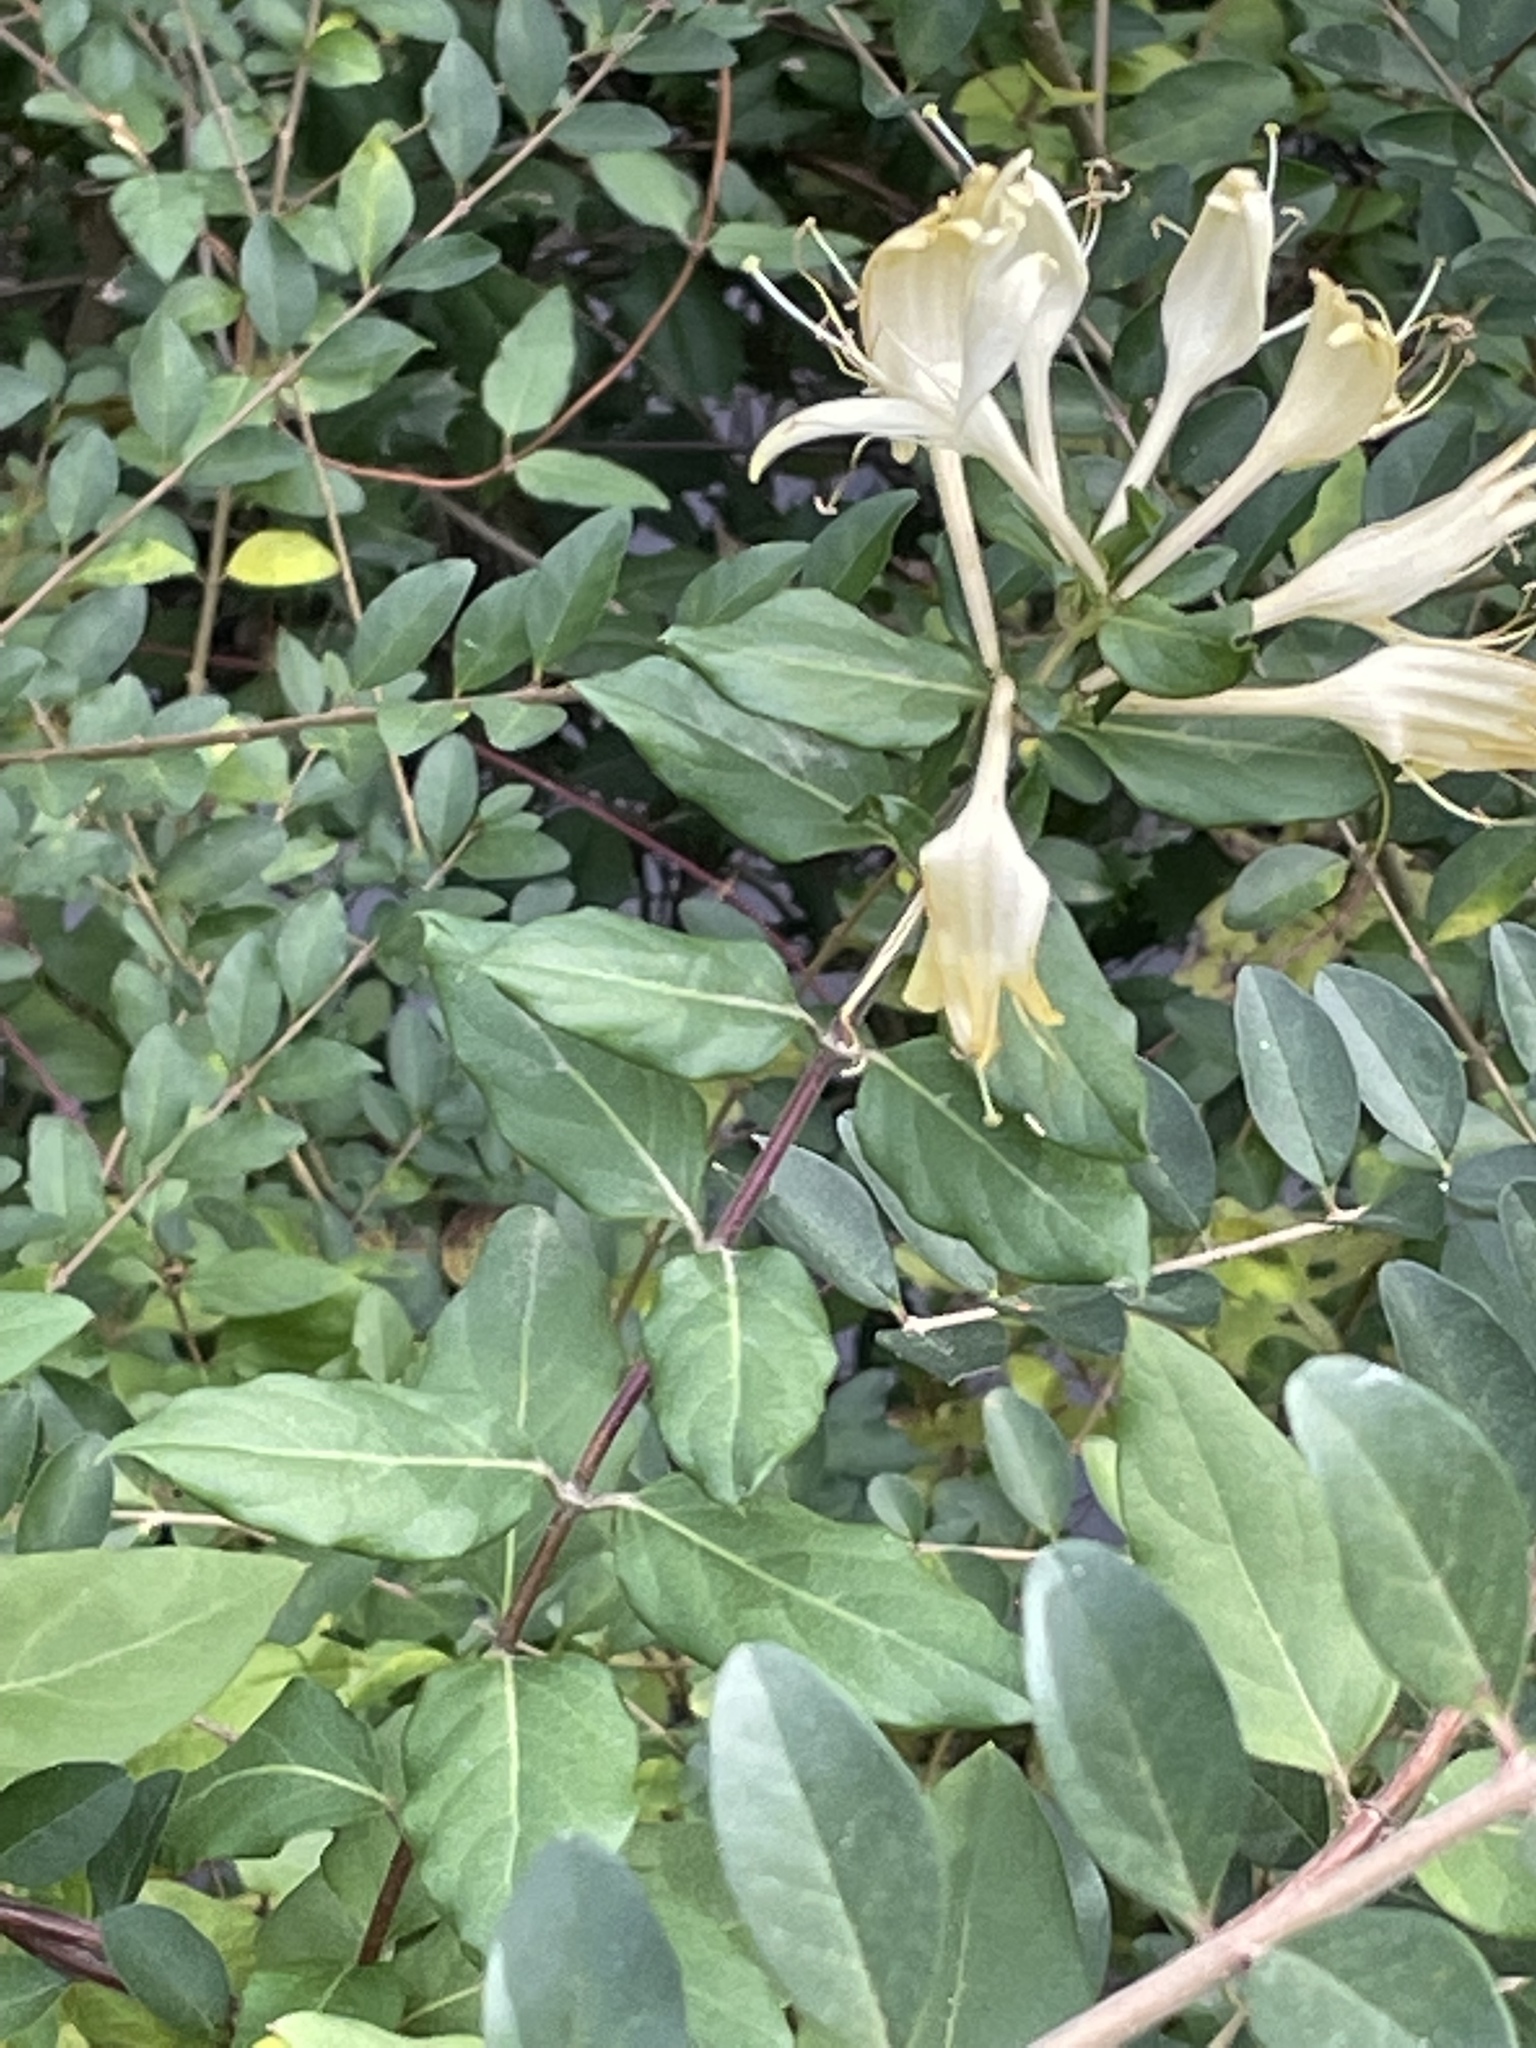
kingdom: Plantae
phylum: Tracheophyta
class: Magnoliopsida
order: Dipsacales
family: Caprifoliaceae
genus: Lonicera
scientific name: Lonicera japonica
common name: Japanese honeysuckle
